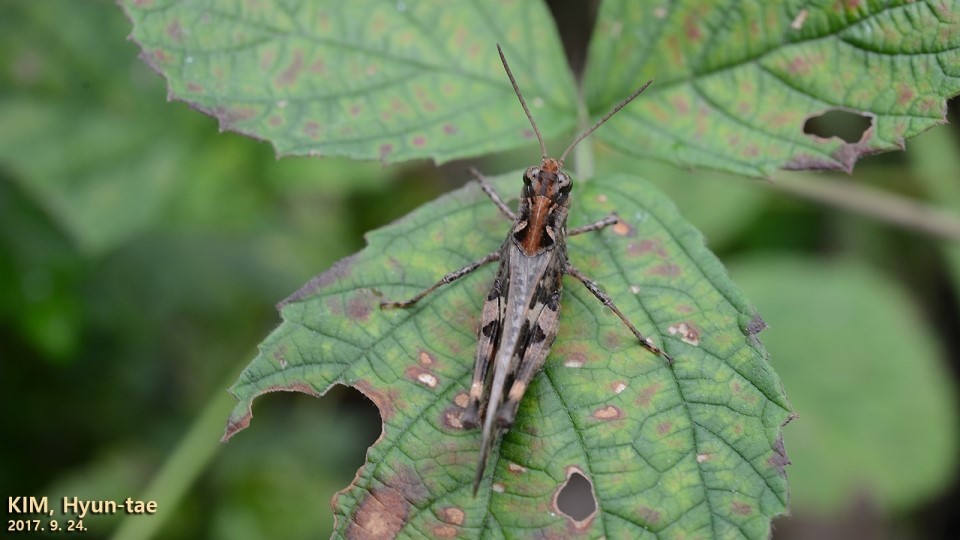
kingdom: Animalia
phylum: Arthropoda
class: Insecta
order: Orthoptera
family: Acrididae
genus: Oedaleus
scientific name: Oedaleus infernalis
